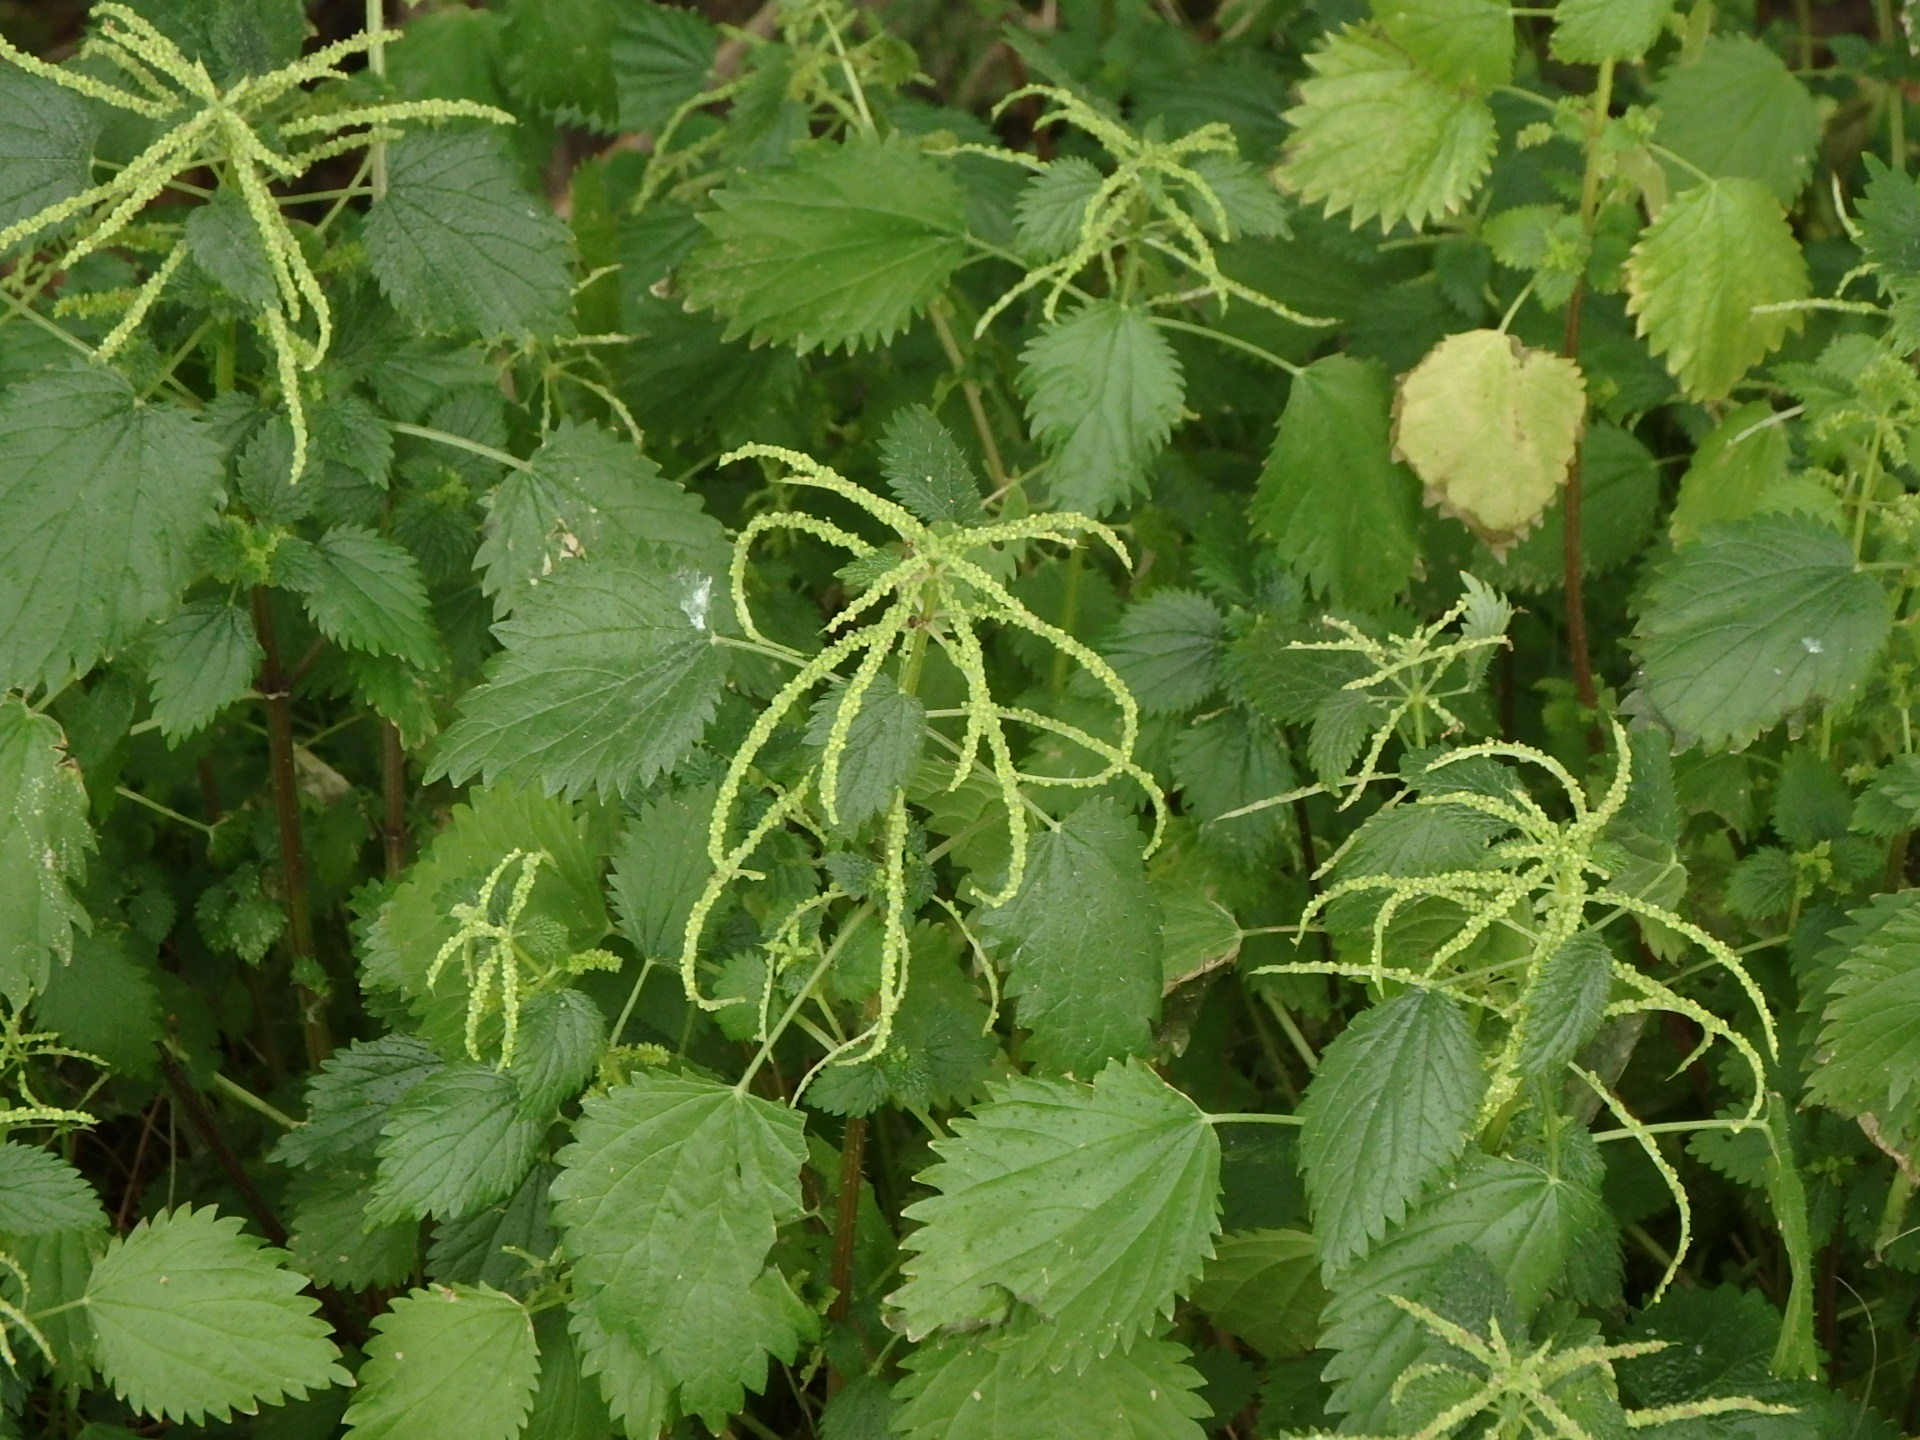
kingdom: Plantae
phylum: Tracheophyta
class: Magnoliopsida
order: Rosales
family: Urticaceae
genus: Urtica
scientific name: Urtica membranacea
